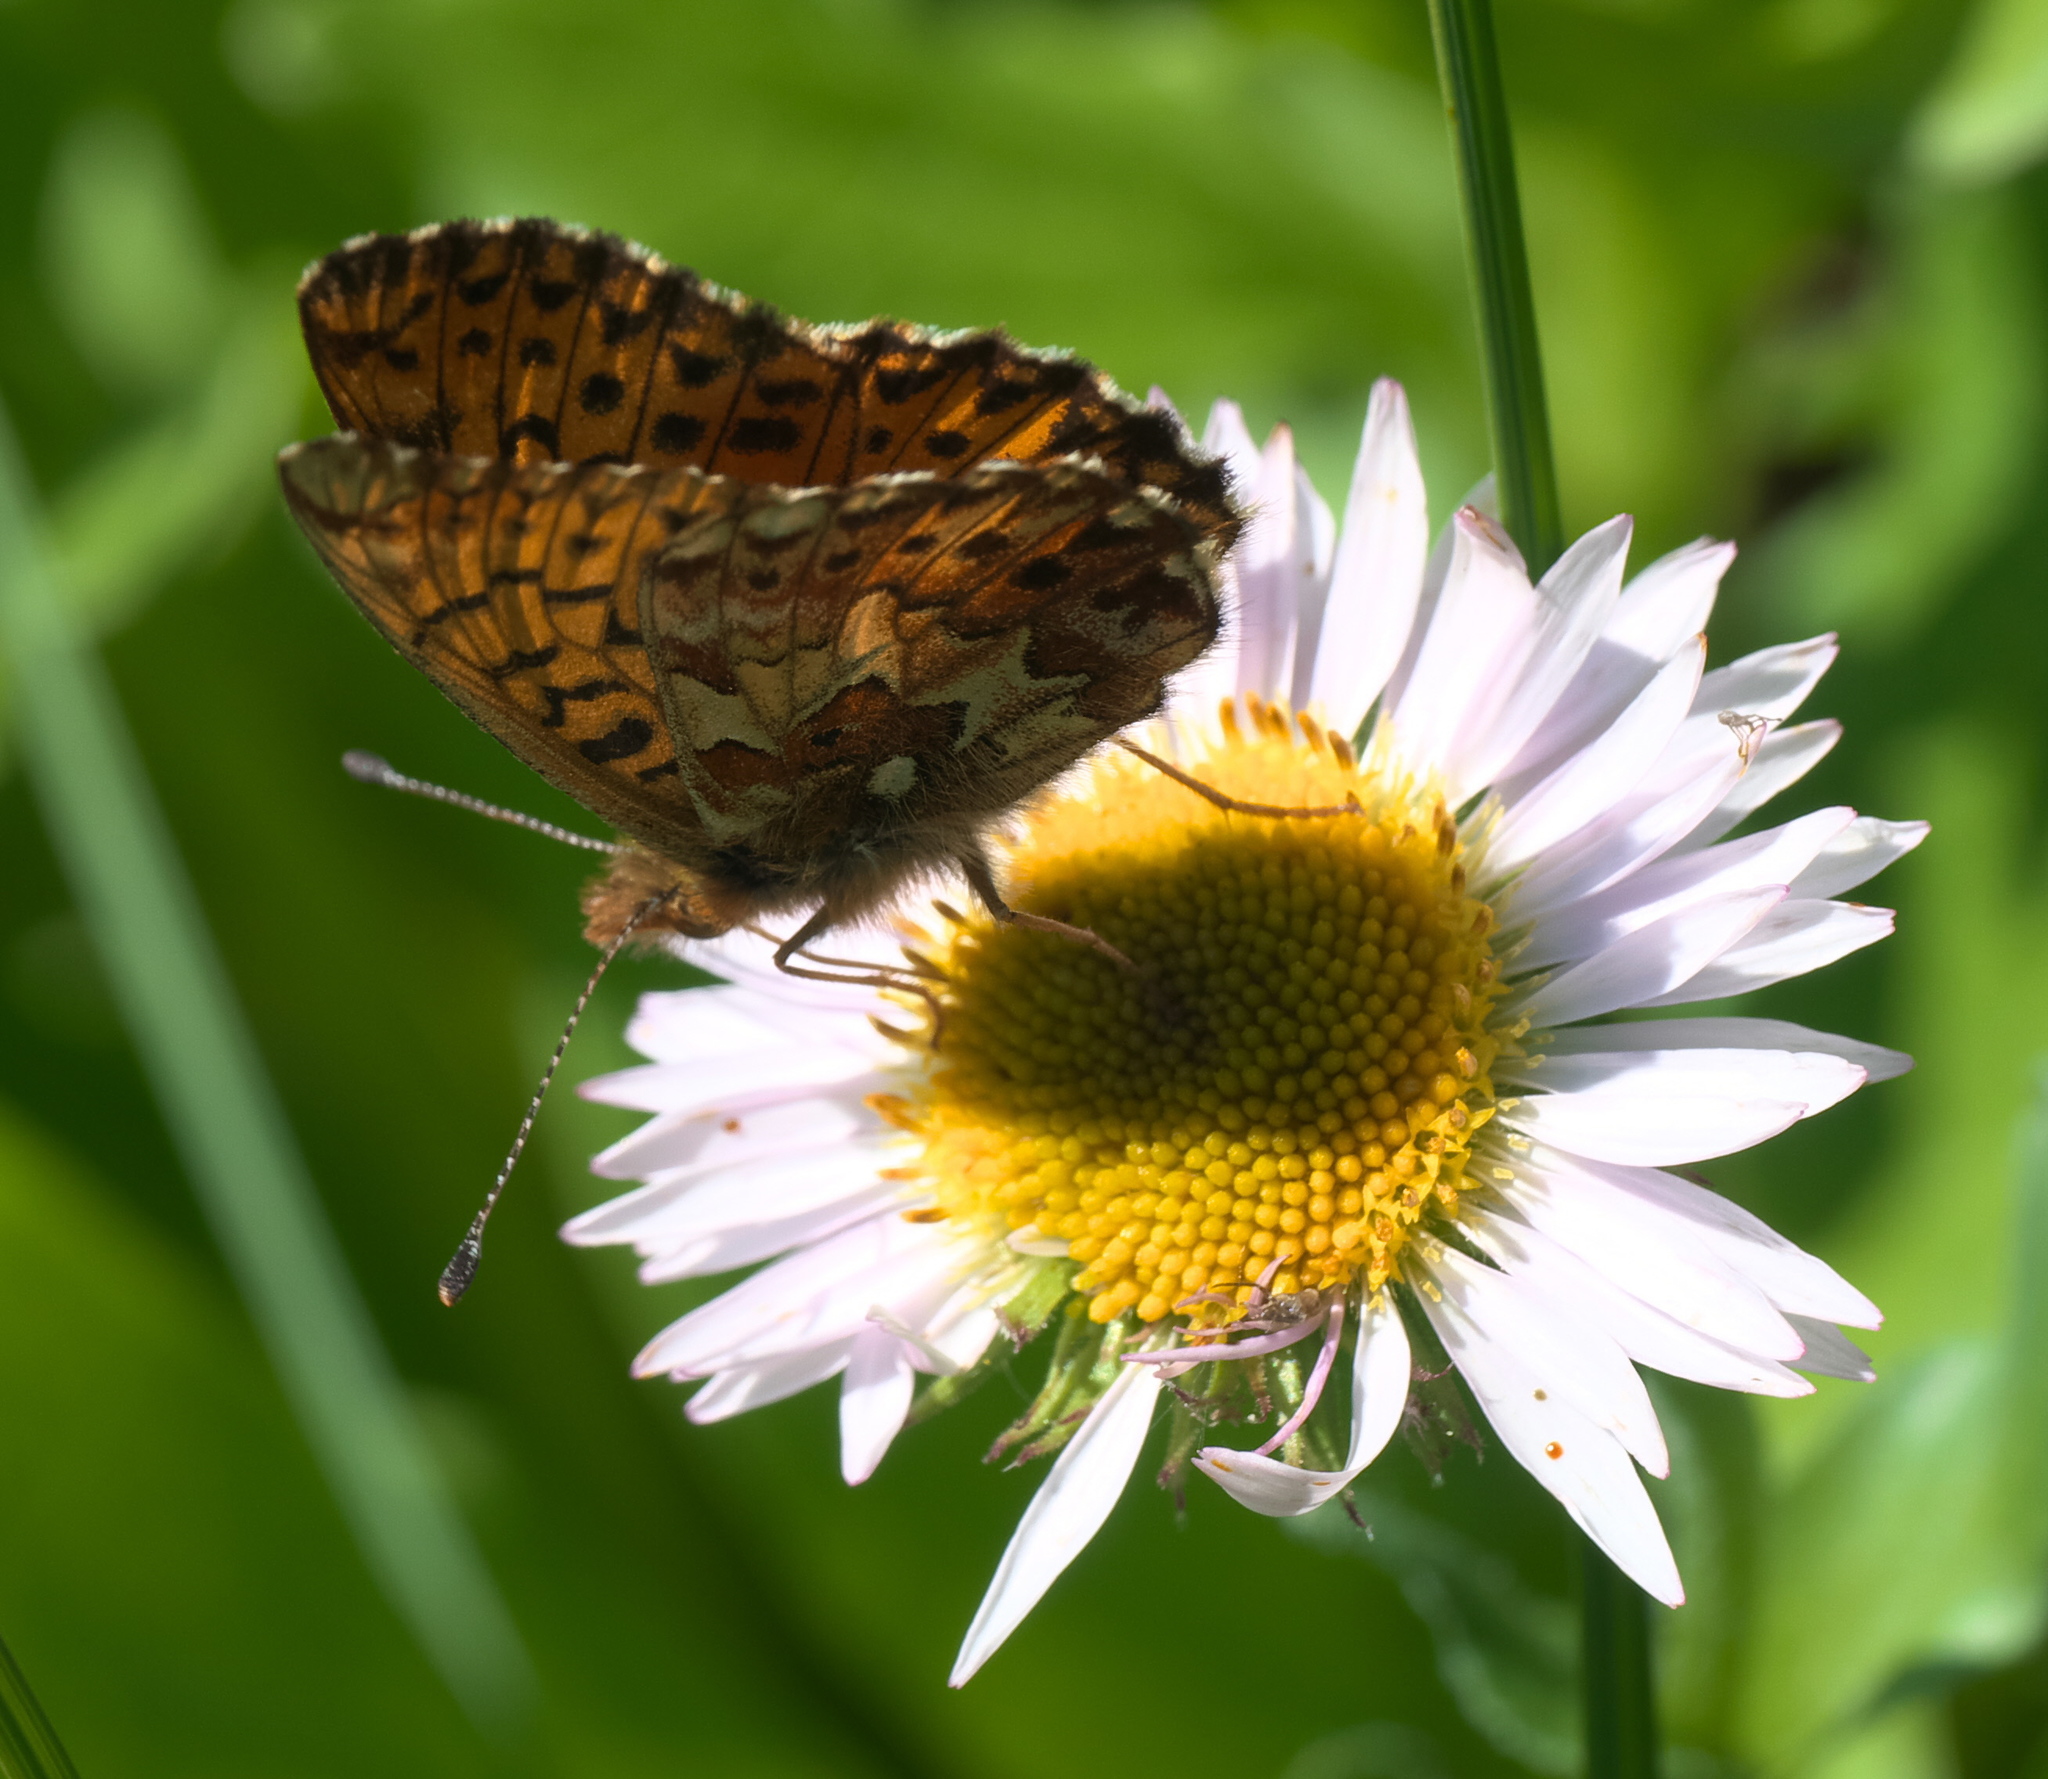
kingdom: Animalia
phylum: Arthropoda
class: Insecta
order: Lepidoptera
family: Nymphalidae
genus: Clossiana
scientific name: Clossiana chariclea
